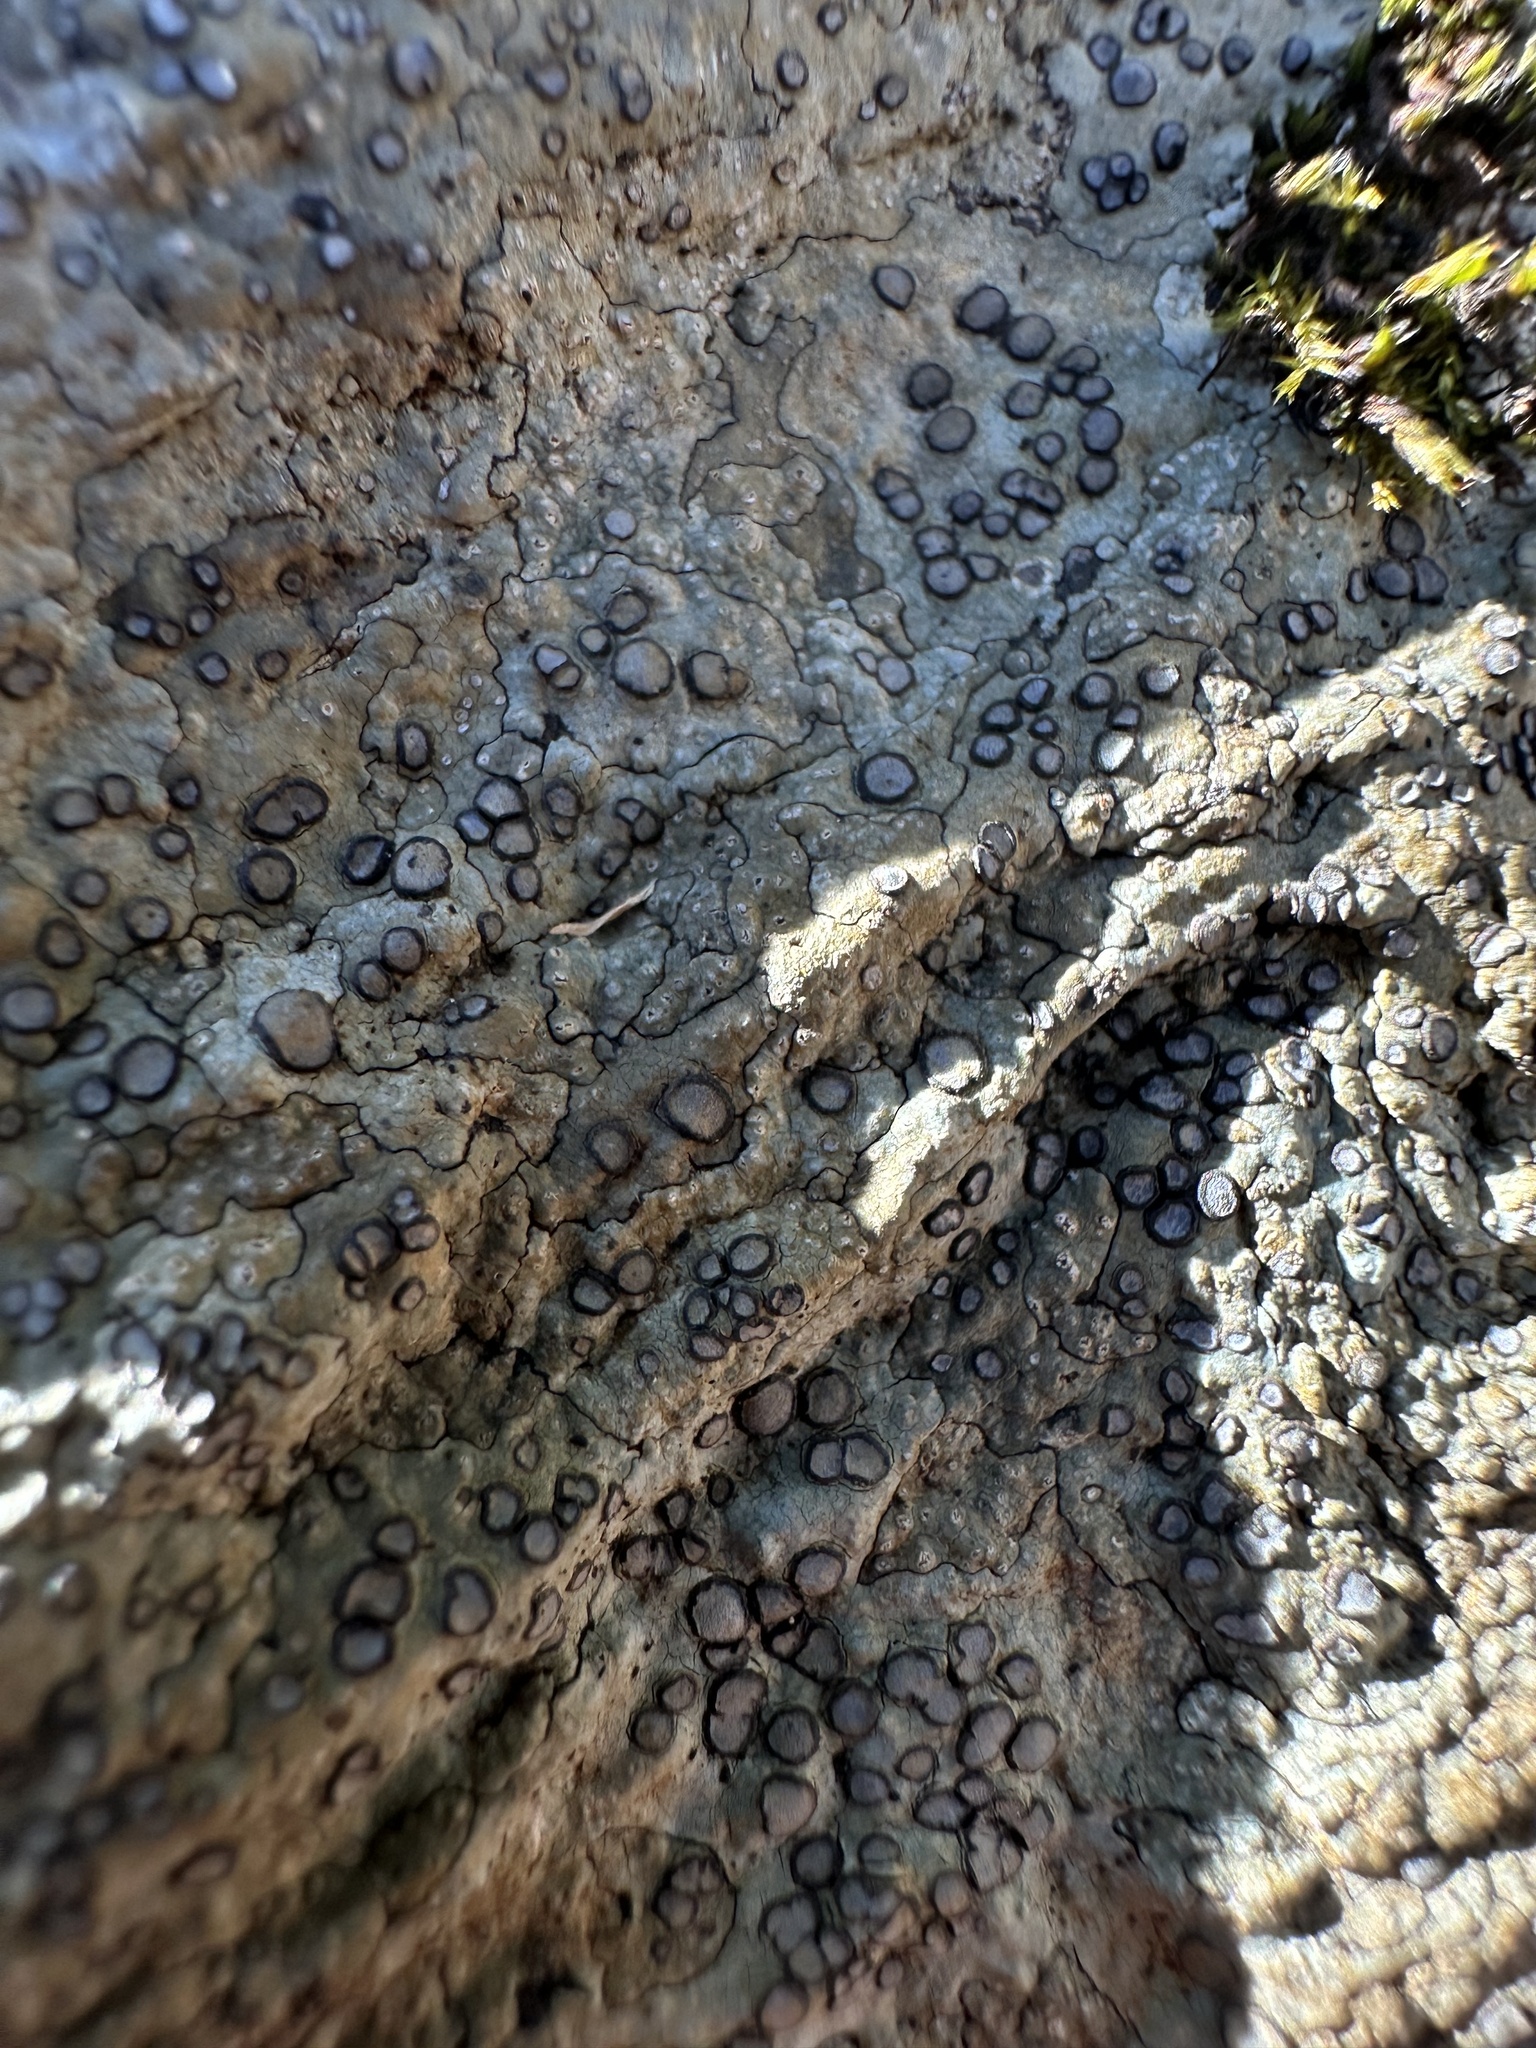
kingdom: Fungi
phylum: Ascomycota
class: Lecanoromycetes
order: Lecideales
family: Lecideaceae
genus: Porpidia
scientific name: Porpidia albocaerulescens
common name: Smokey-eyed boulder lichen
